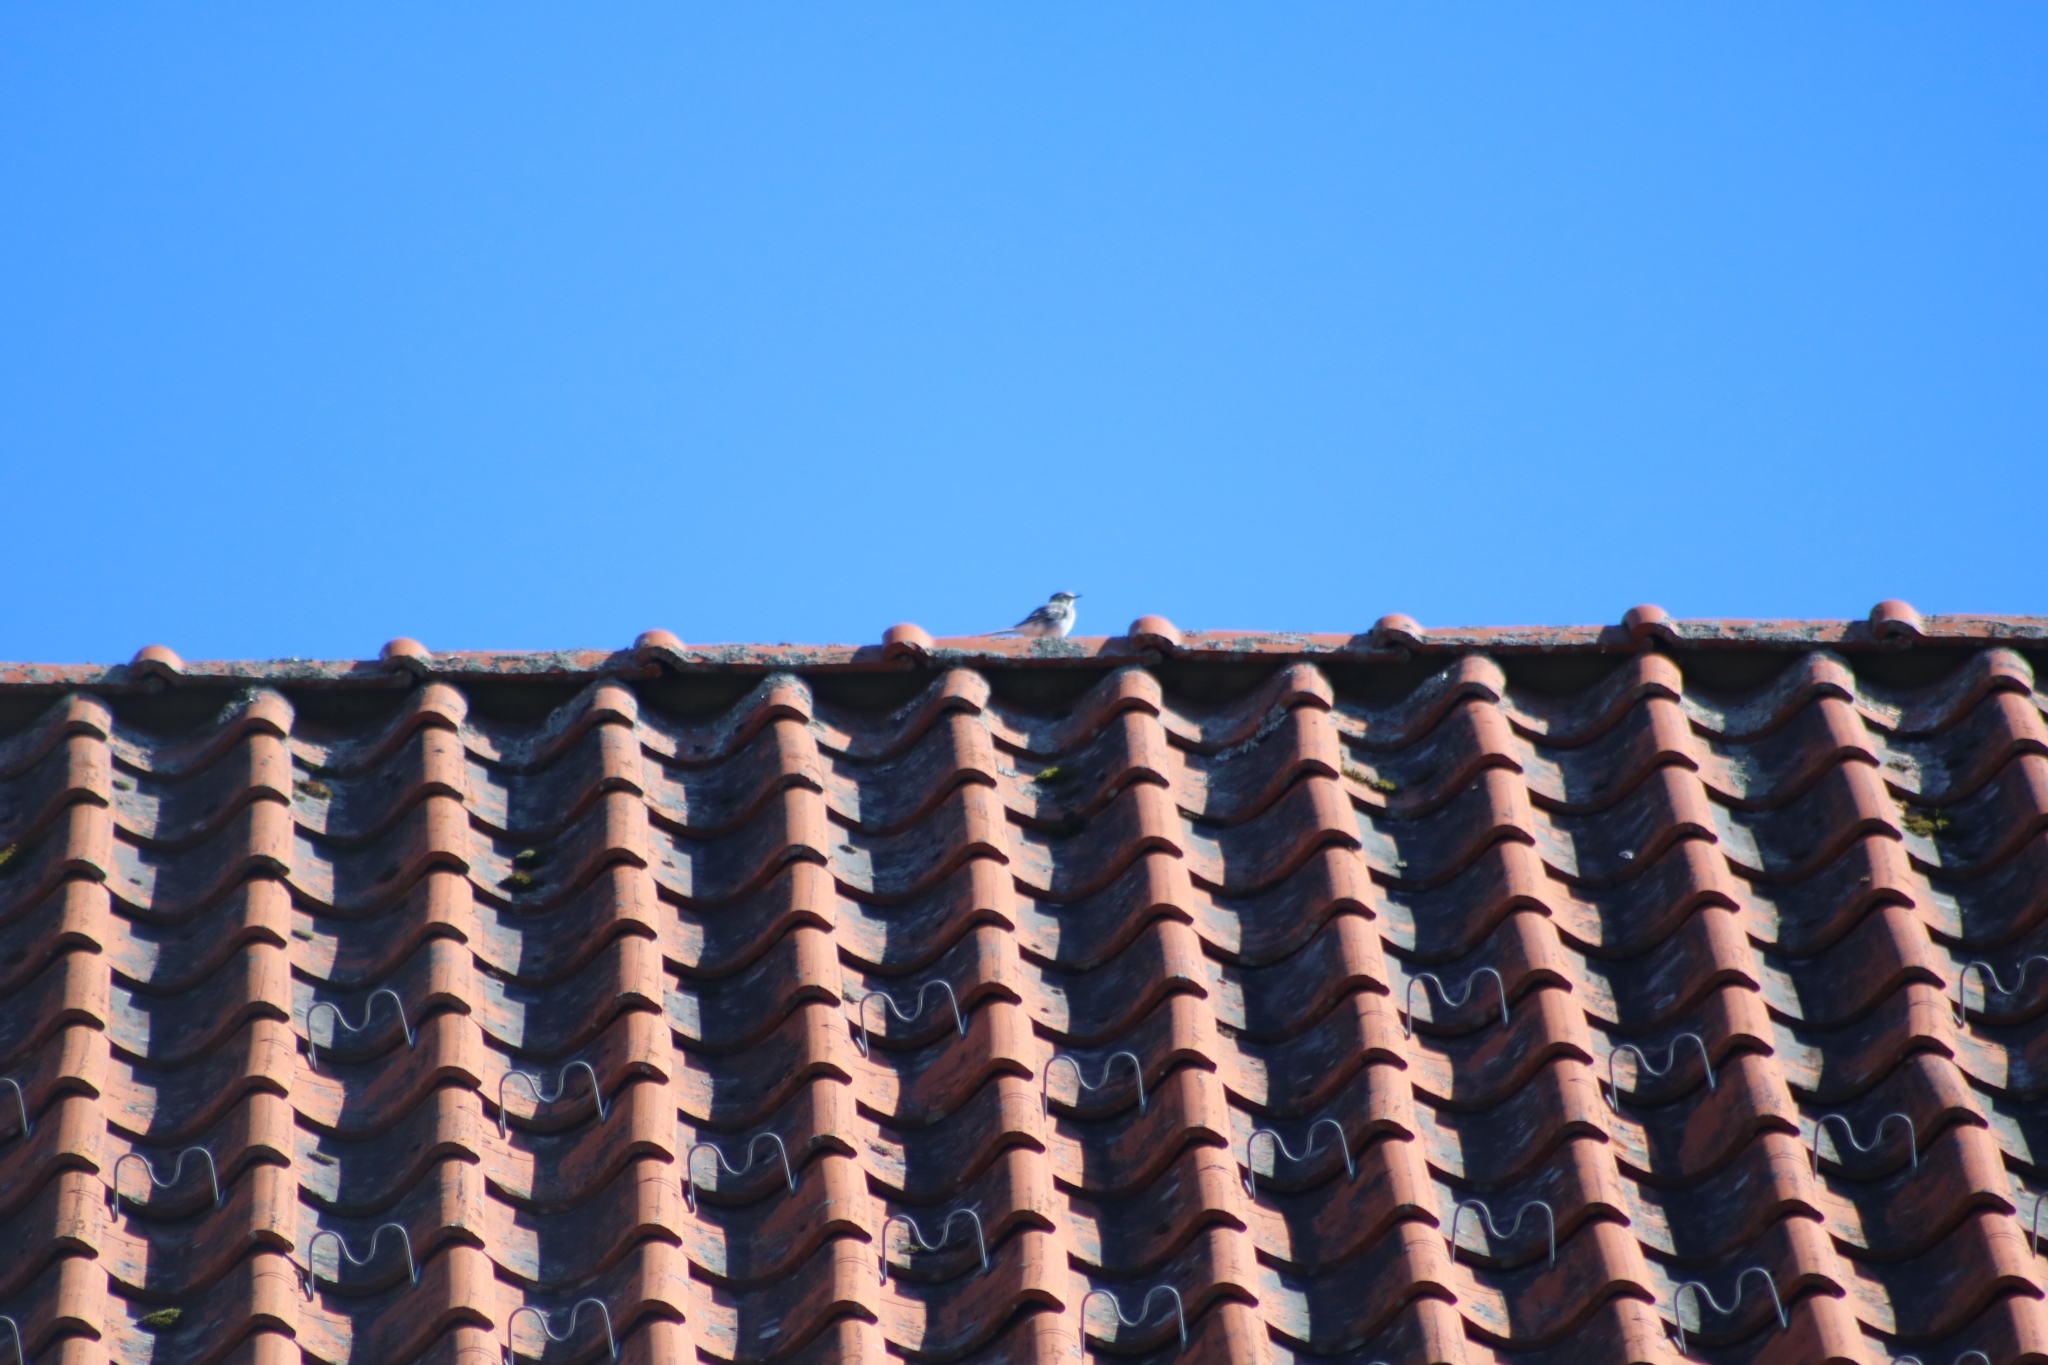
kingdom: Animalia
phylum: Chordata
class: Aves
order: Passeriformes
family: Motacillidae
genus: Motacilla
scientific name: Motacilla alba
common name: White wagtail
